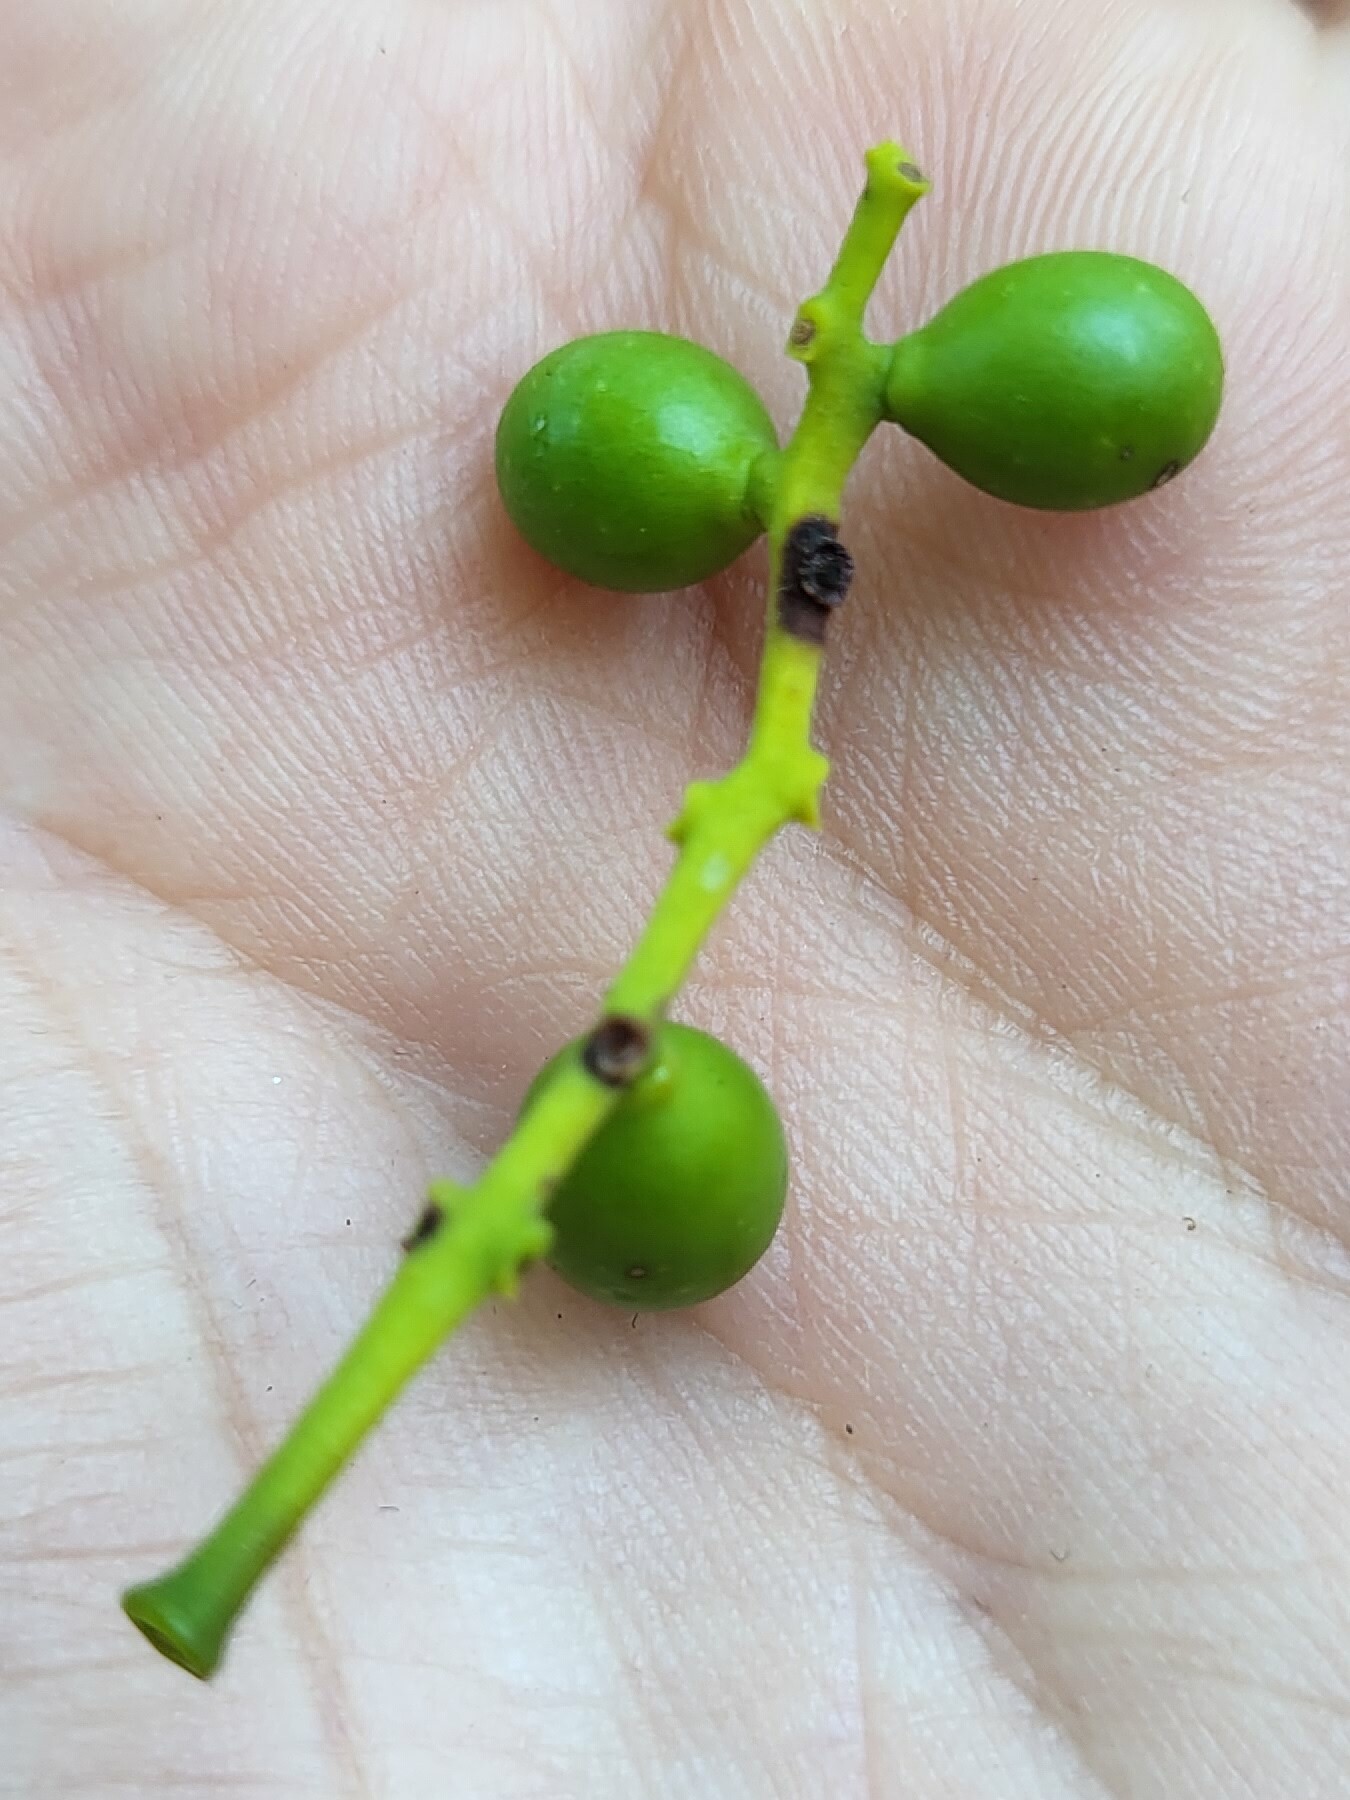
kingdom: Plantae
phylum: Tracheophyta
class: Magnoliopsida
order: Santalales
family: Loranthaceae
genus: Loranthus
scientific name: Loranthus europaeus
